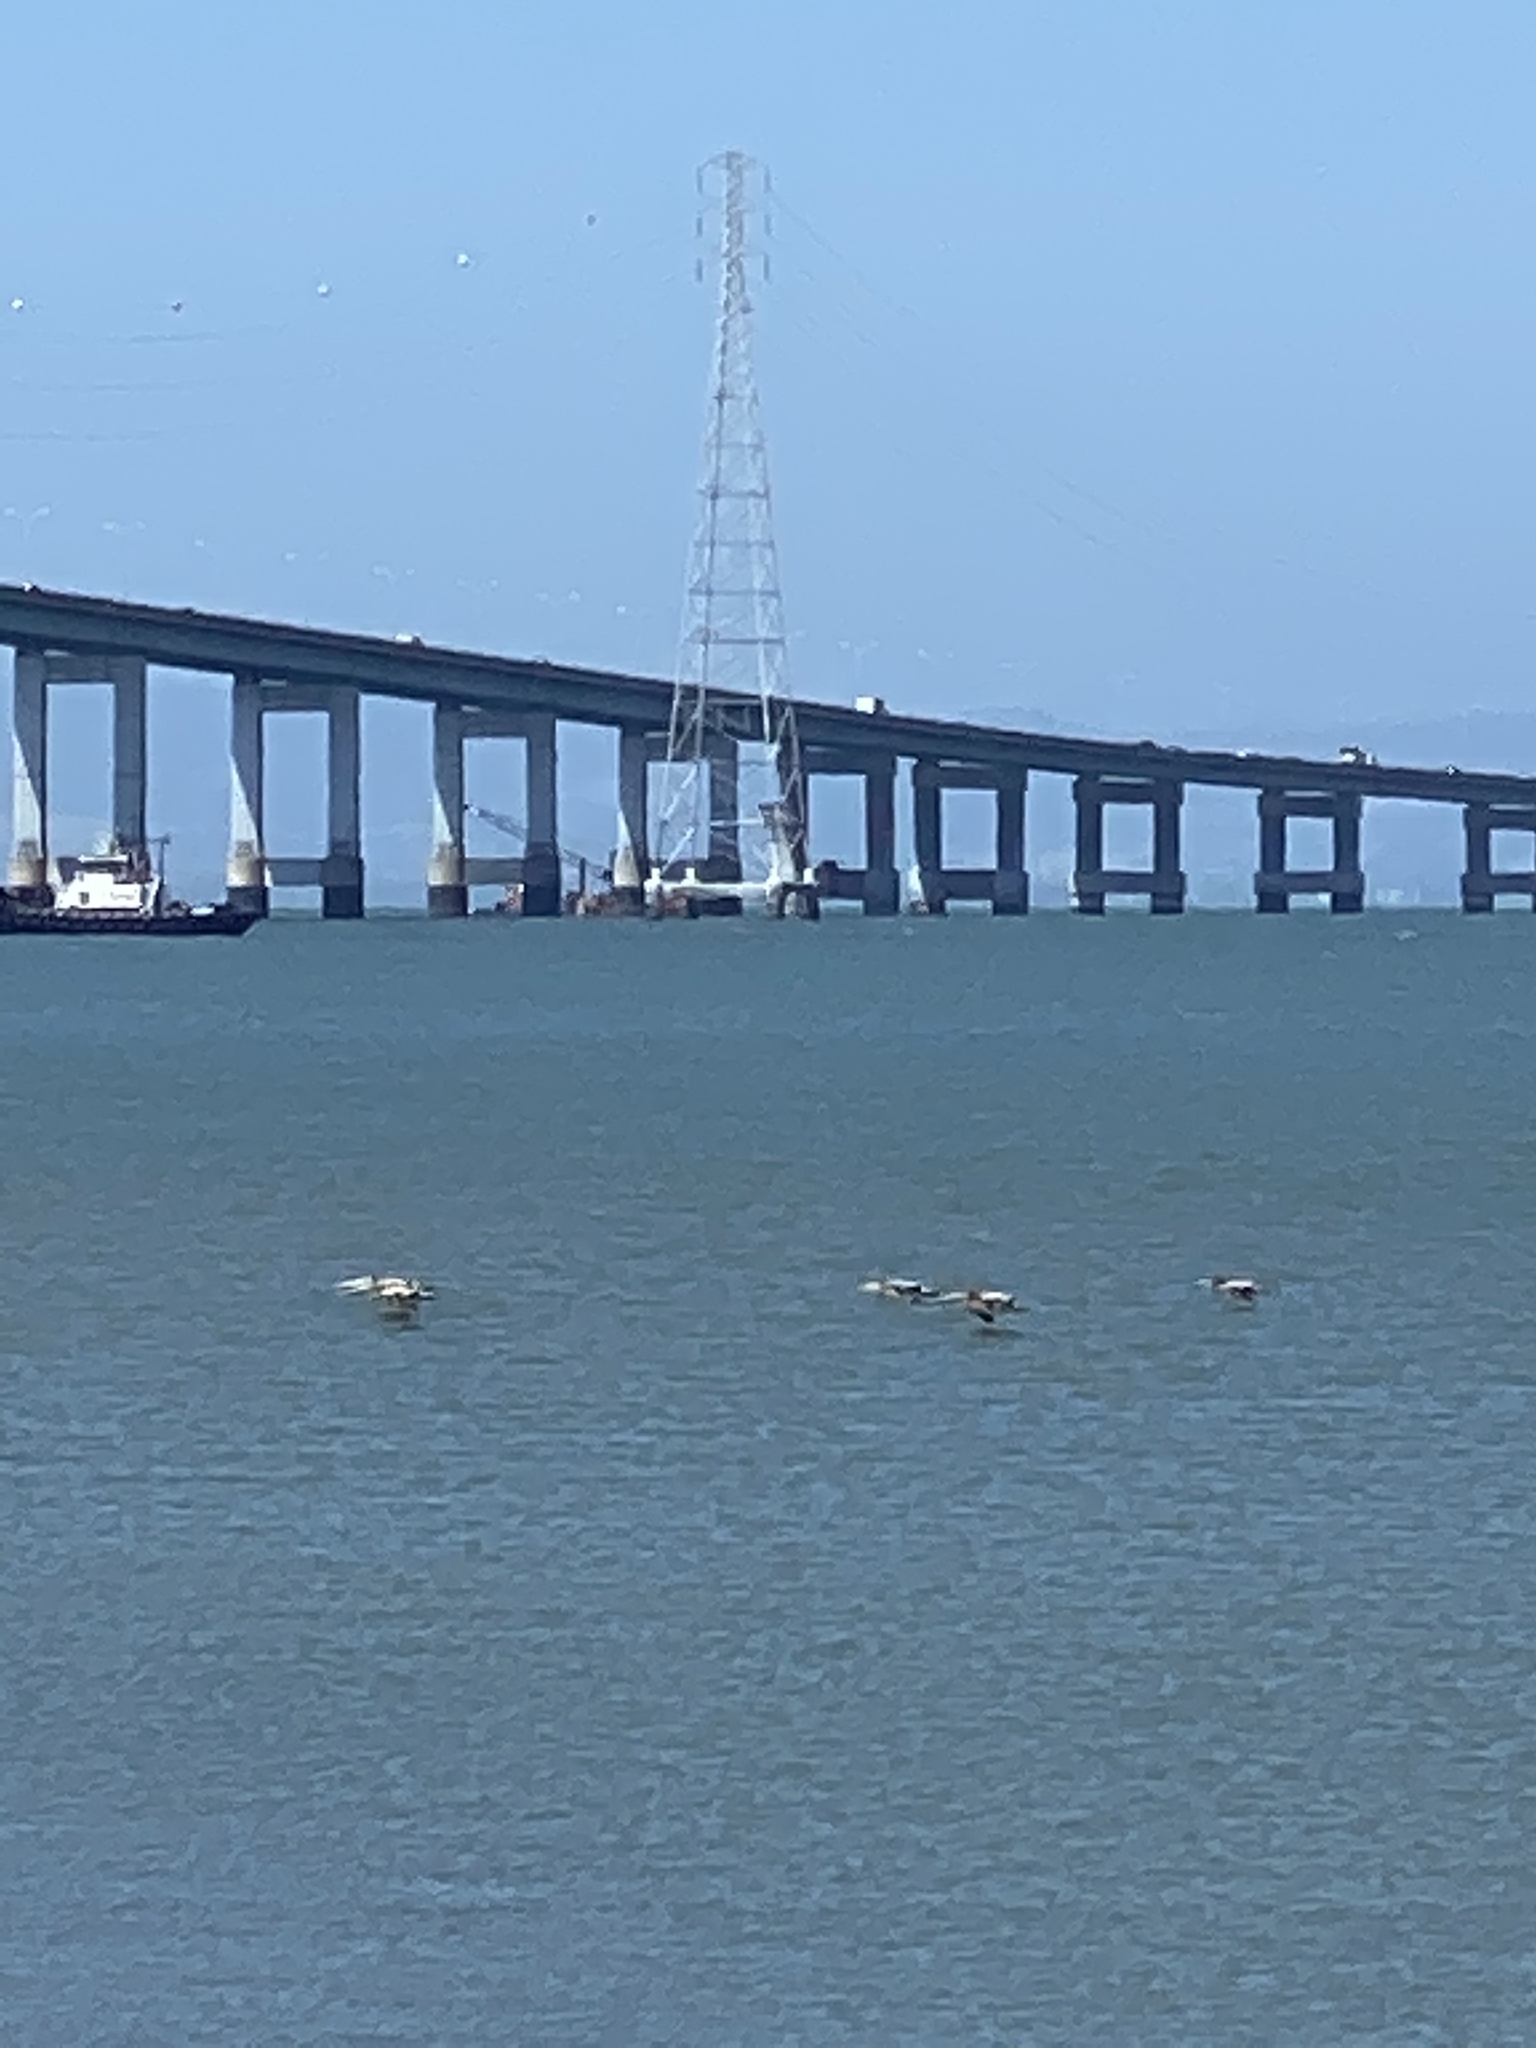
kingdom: Animalia
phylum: Chordata
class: Aves
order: Pelecaniformes
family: Pelecanidae
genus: Pelecanus
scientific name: Pelecanus occidentalis
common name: Brown pelican
